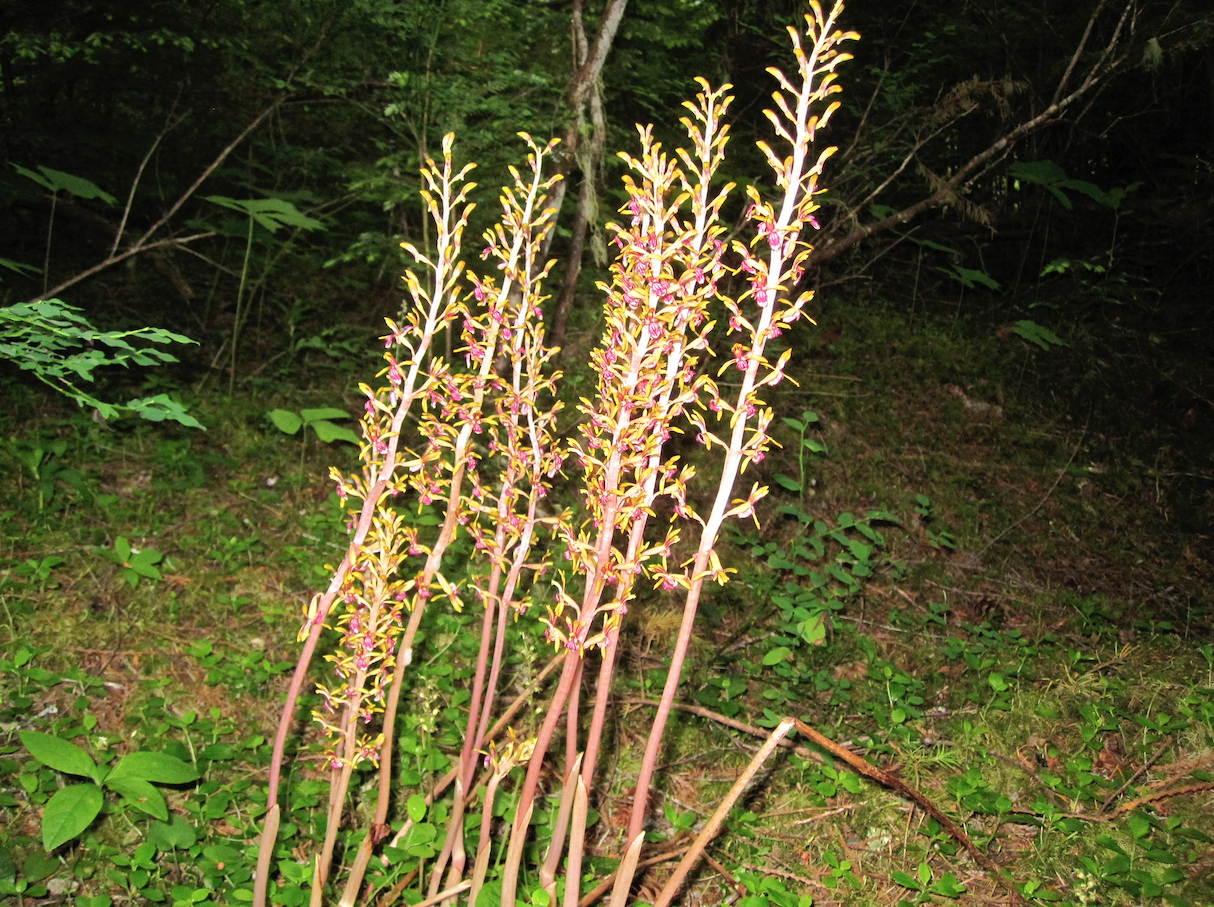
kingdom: Plantae
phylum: Tracheophyta
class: Liliopsida
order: Asparagales
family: Orchidaceae
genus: Corallorhiza
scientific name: Corallorhiza mertensiana
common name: Pacific coralroot
